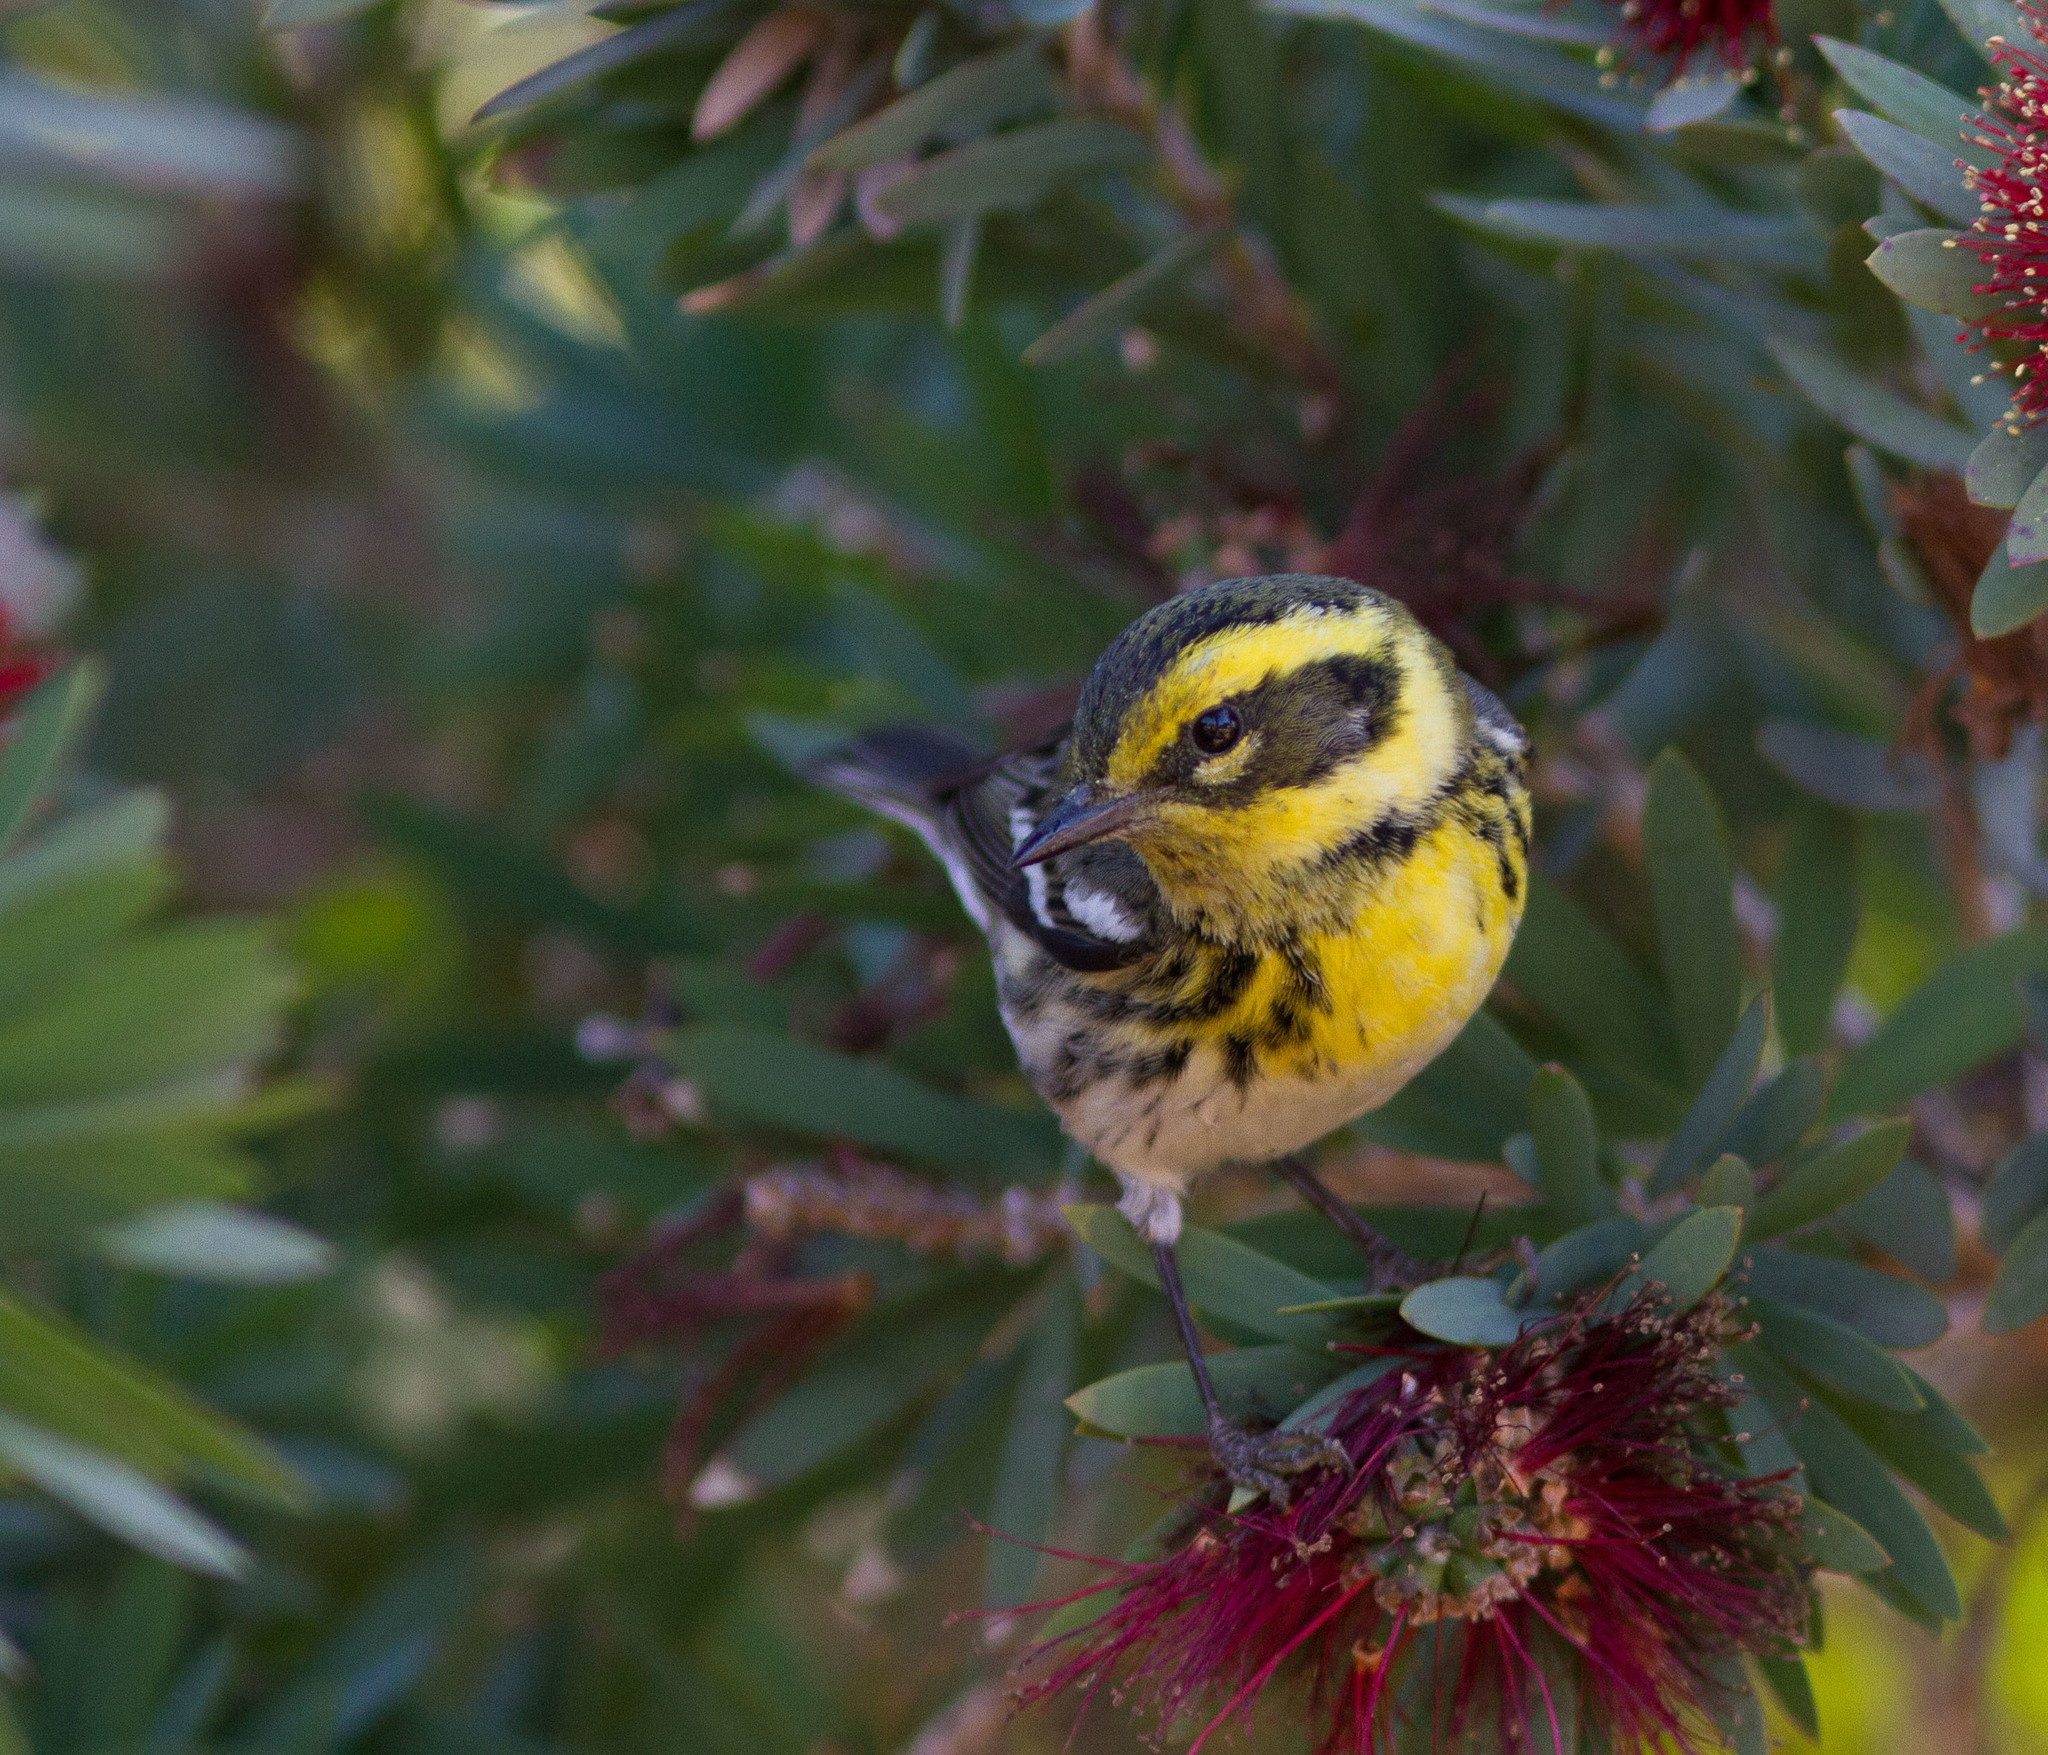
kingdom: Animalia
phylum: Chordata
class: Aves
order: Passeriformes
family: Parulidae
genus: Setophaga
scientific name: Setophaga townsendi
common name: Townsend's warbler
